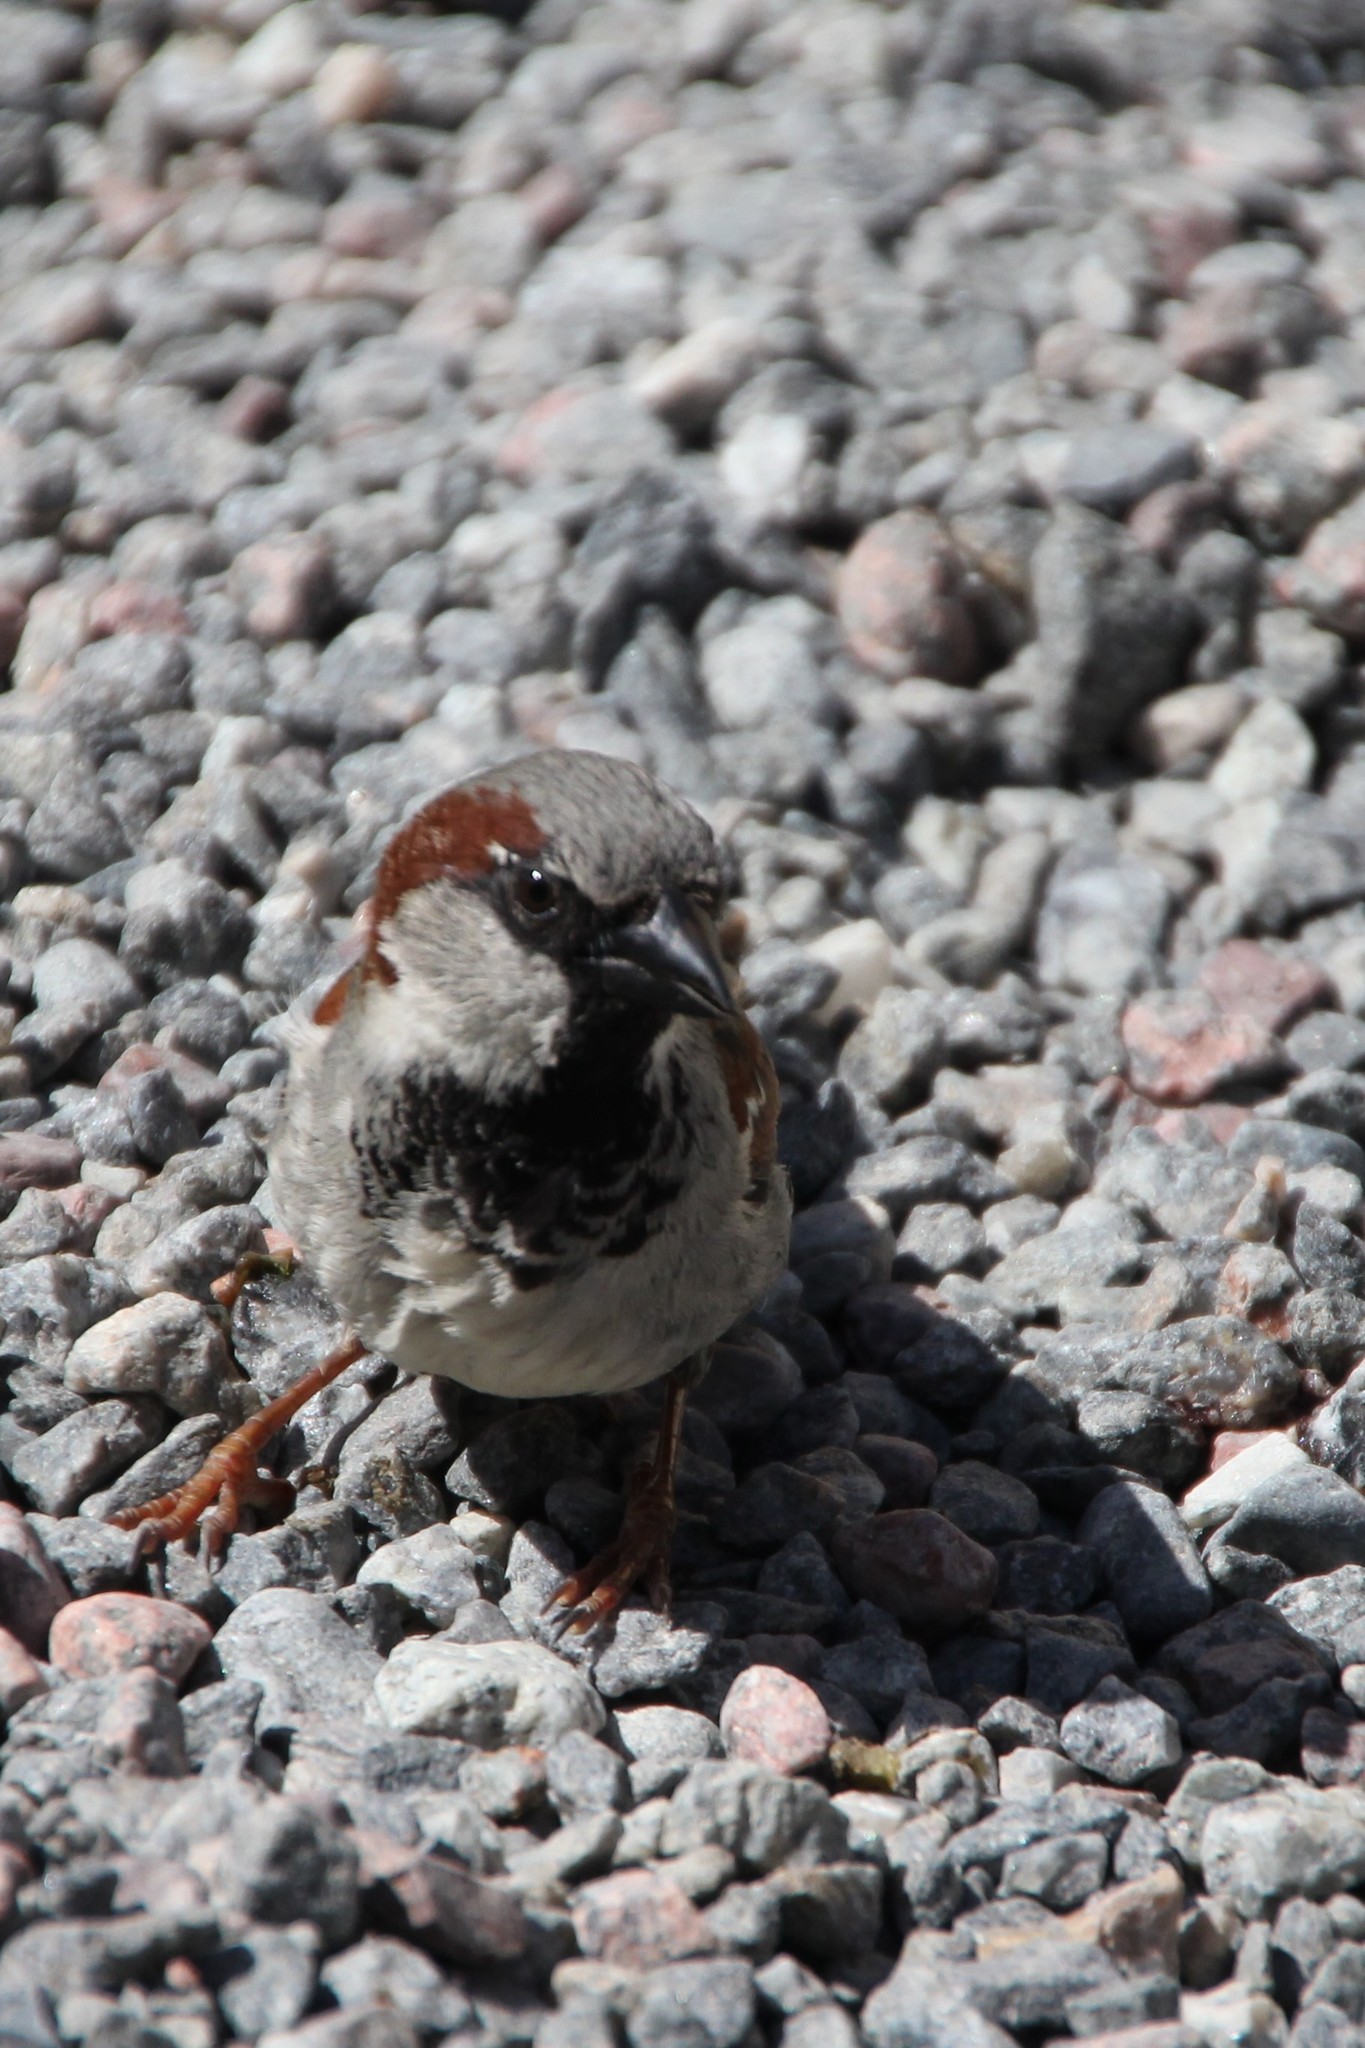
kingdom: Animalia
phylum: Chordata
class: Aves
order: Passeriformes
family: Passeridae
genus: Passer
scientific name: Passer domesticus
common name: House sparrow
